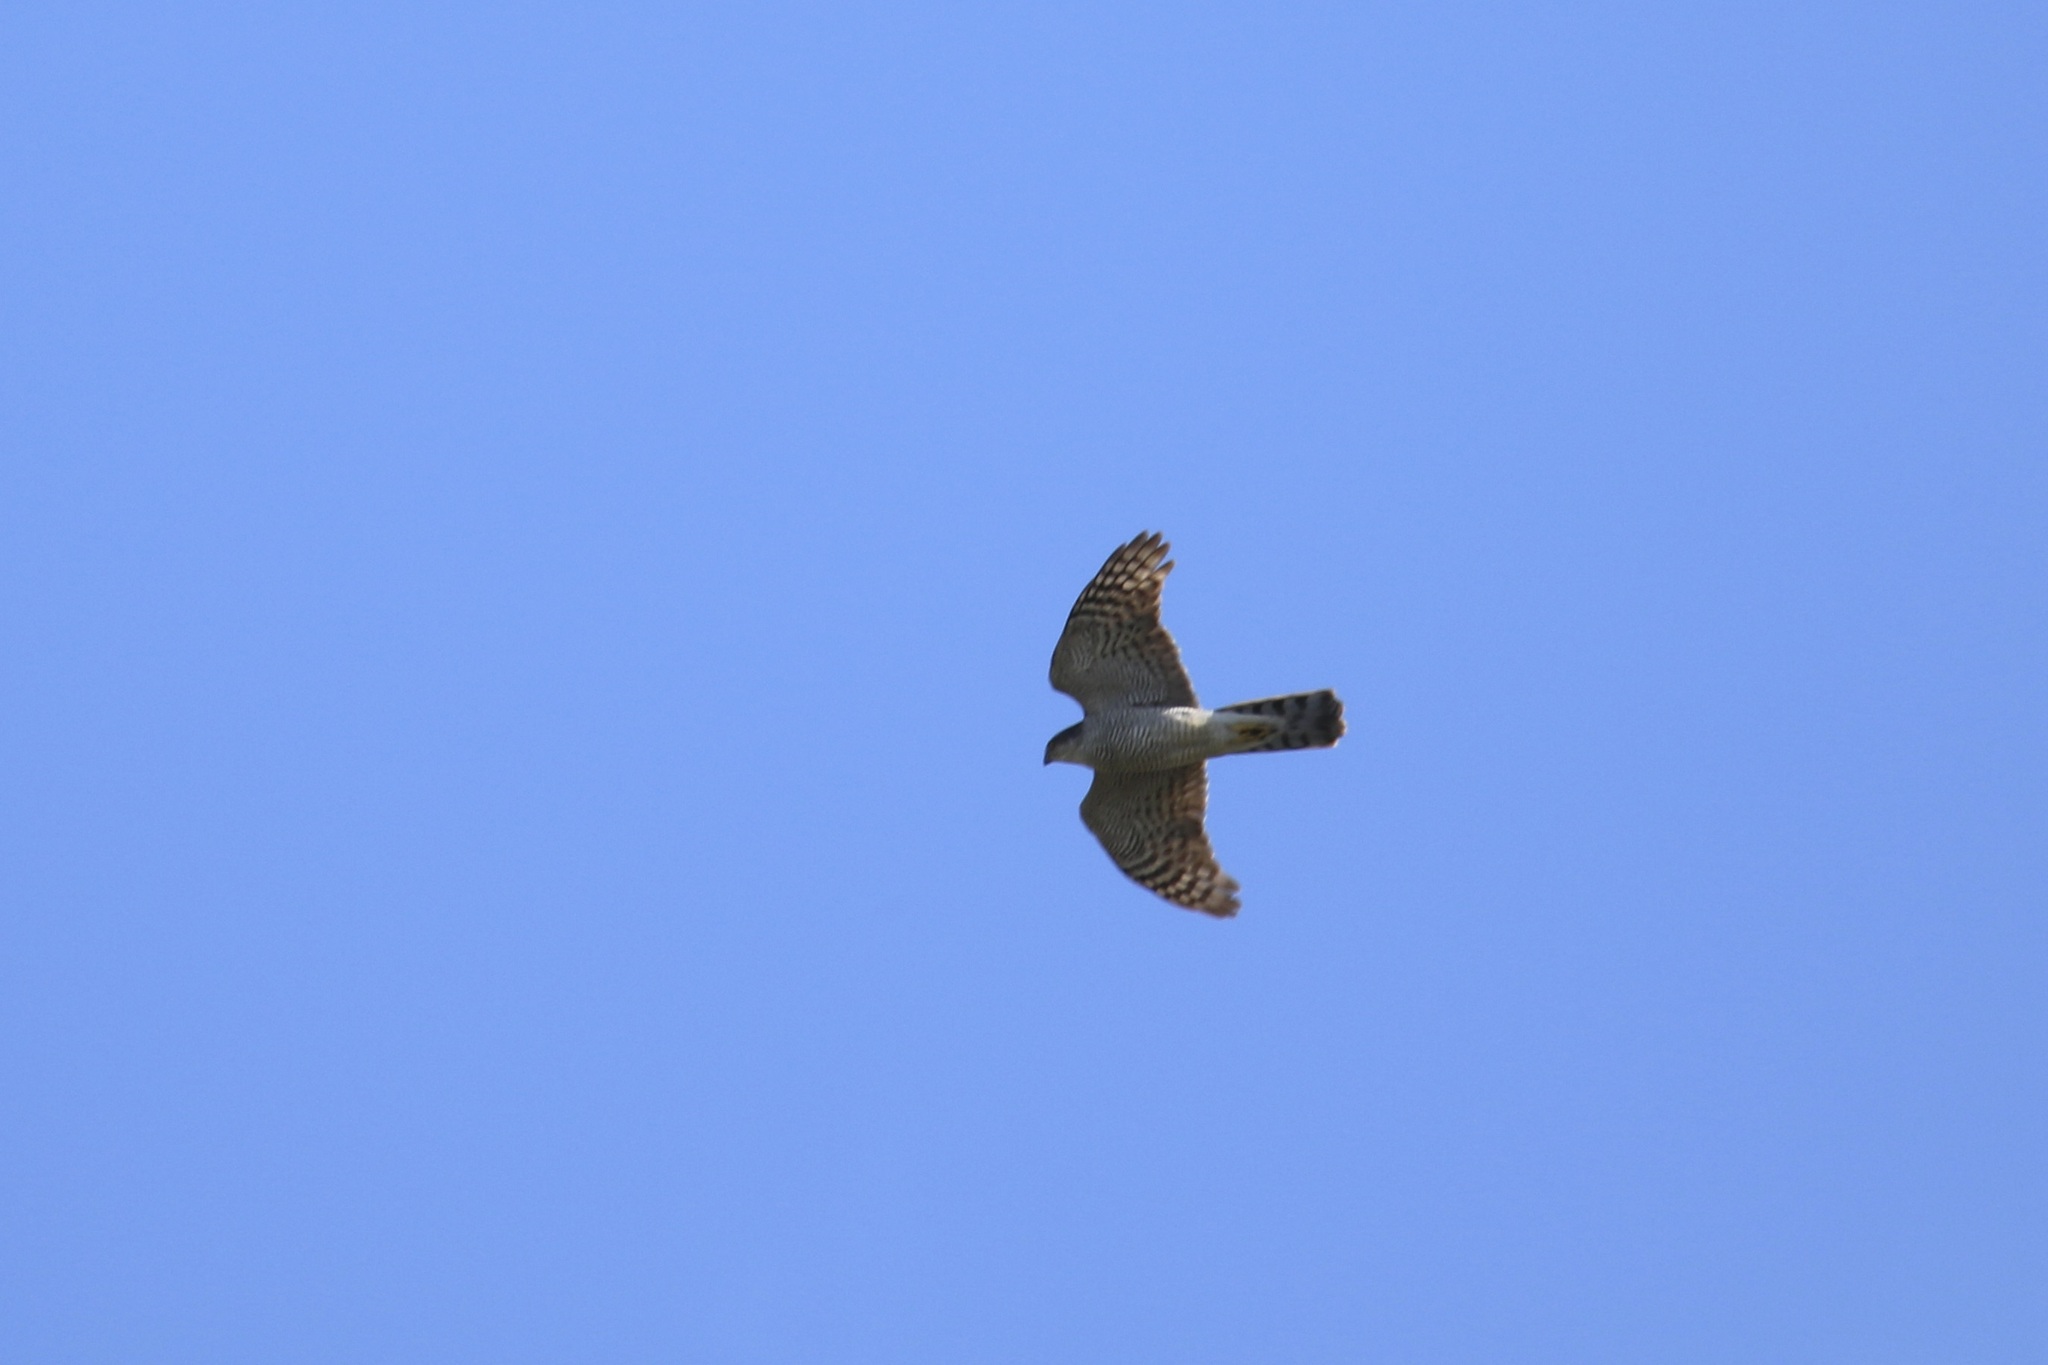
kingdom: Animalia
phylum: Chordata
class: Aves
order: Accipitriformes
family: Accipitridae
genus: Accipiter
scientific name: Accipiter nisus
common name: Eurasian sparrowhawk
